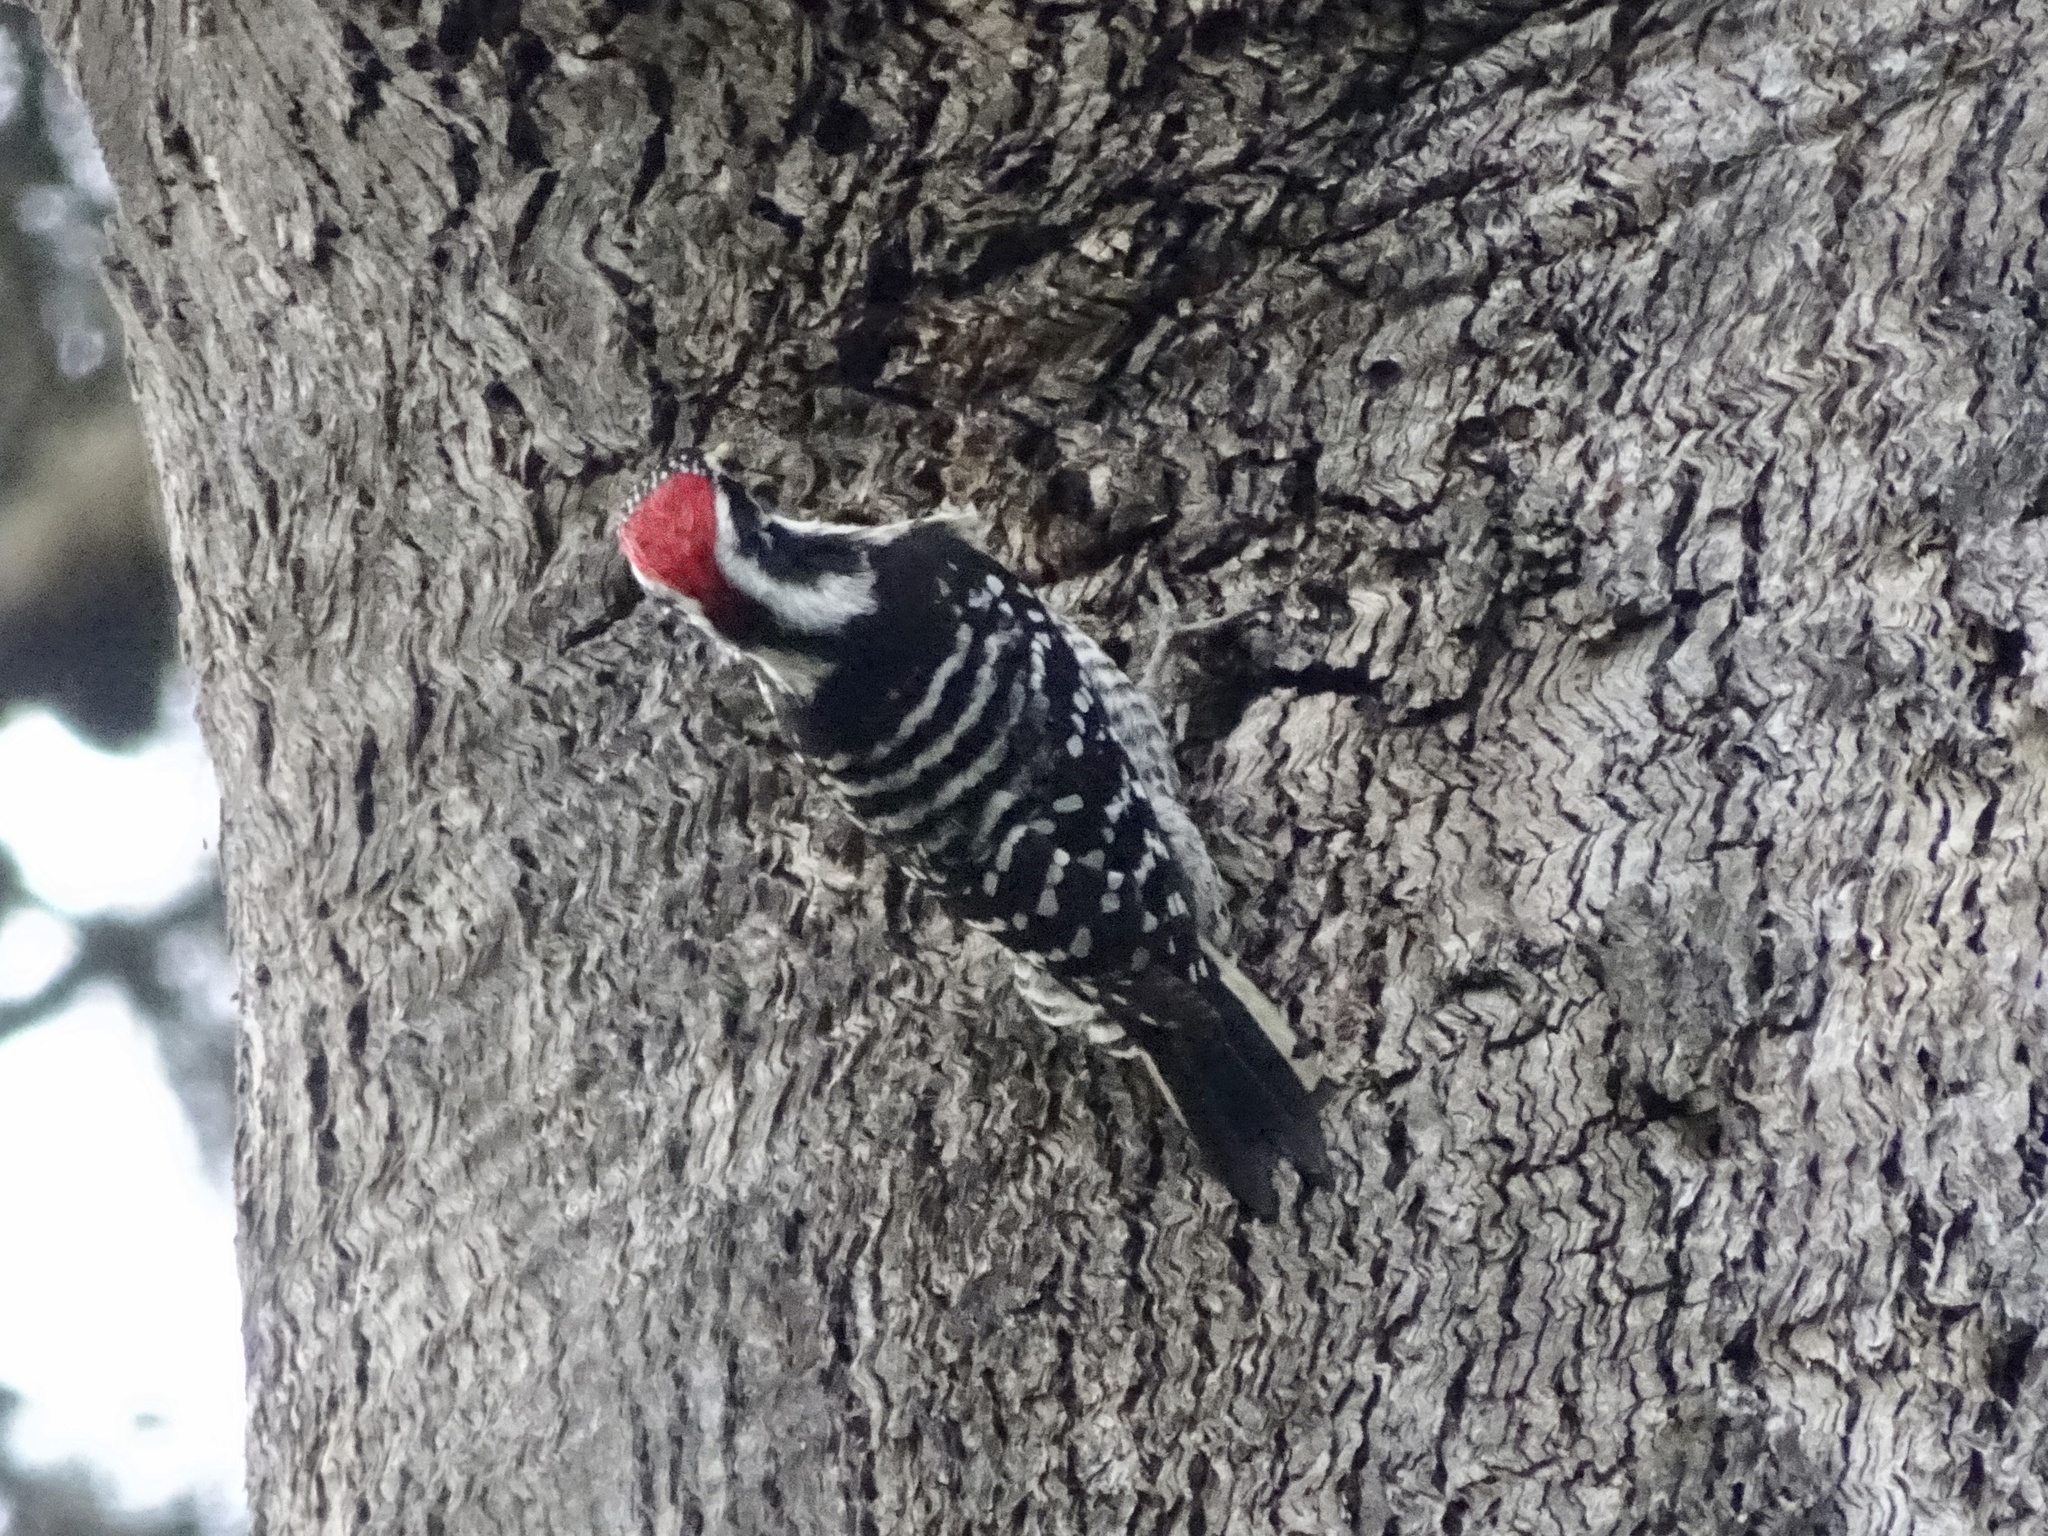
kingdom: Animalia
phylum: Chordata
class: Aves
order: Piciformes
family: Picidae
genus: Dryobates
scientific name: Dryobates nuttallii
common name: Nuttall's woodpecker
